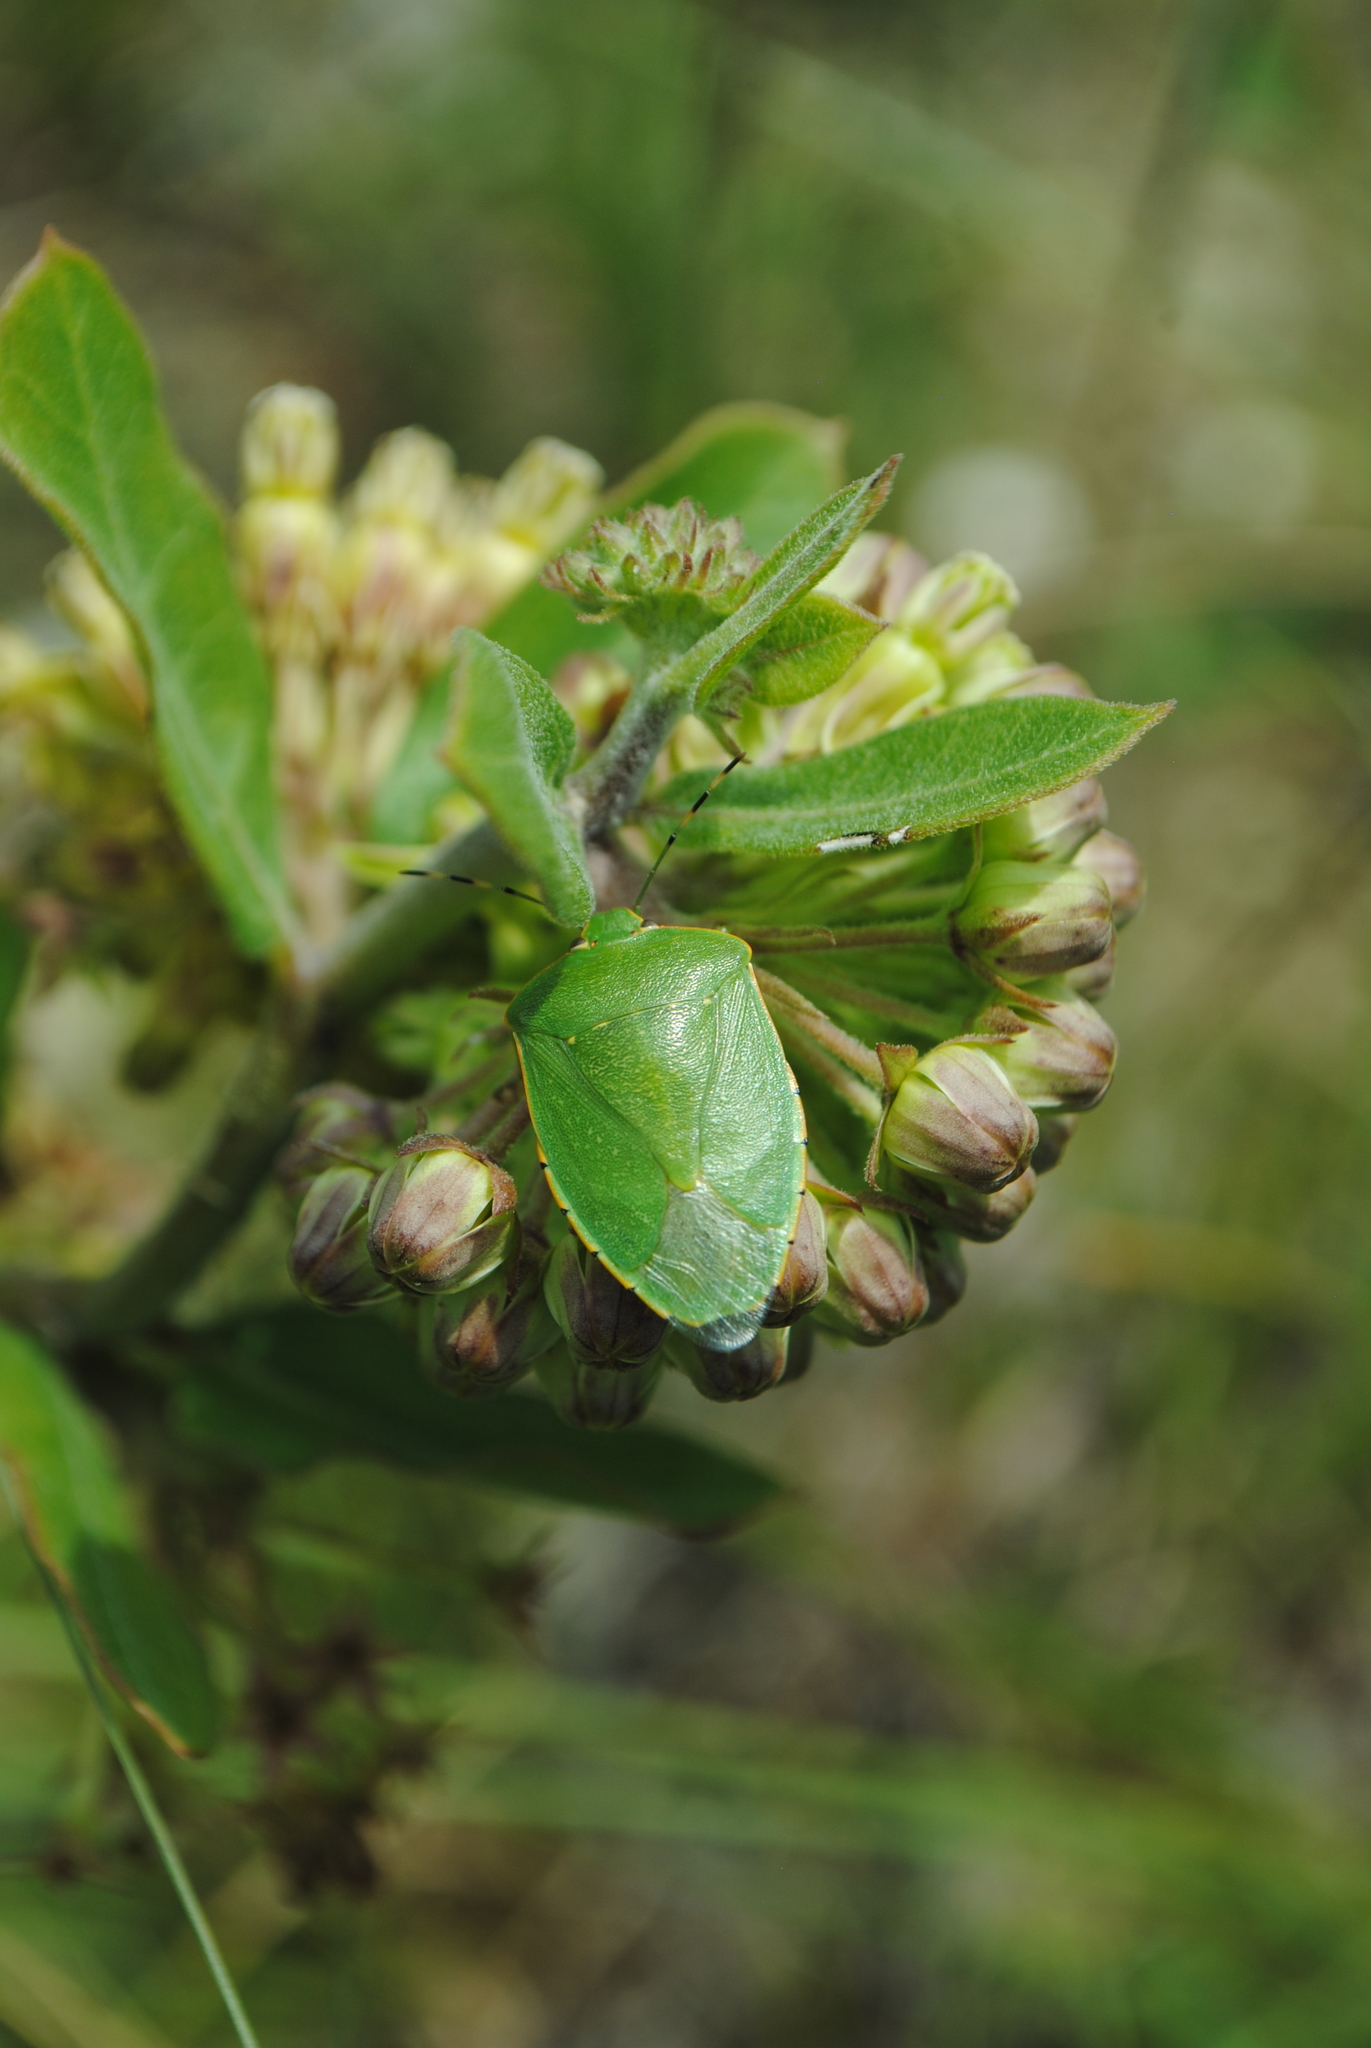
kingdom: Animalia
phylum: Arthropoda
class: Insecta
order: Hemiptera
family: Pentatomidae
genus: Chinavia
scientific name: Chinavia hilaris
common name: Green stink bug
